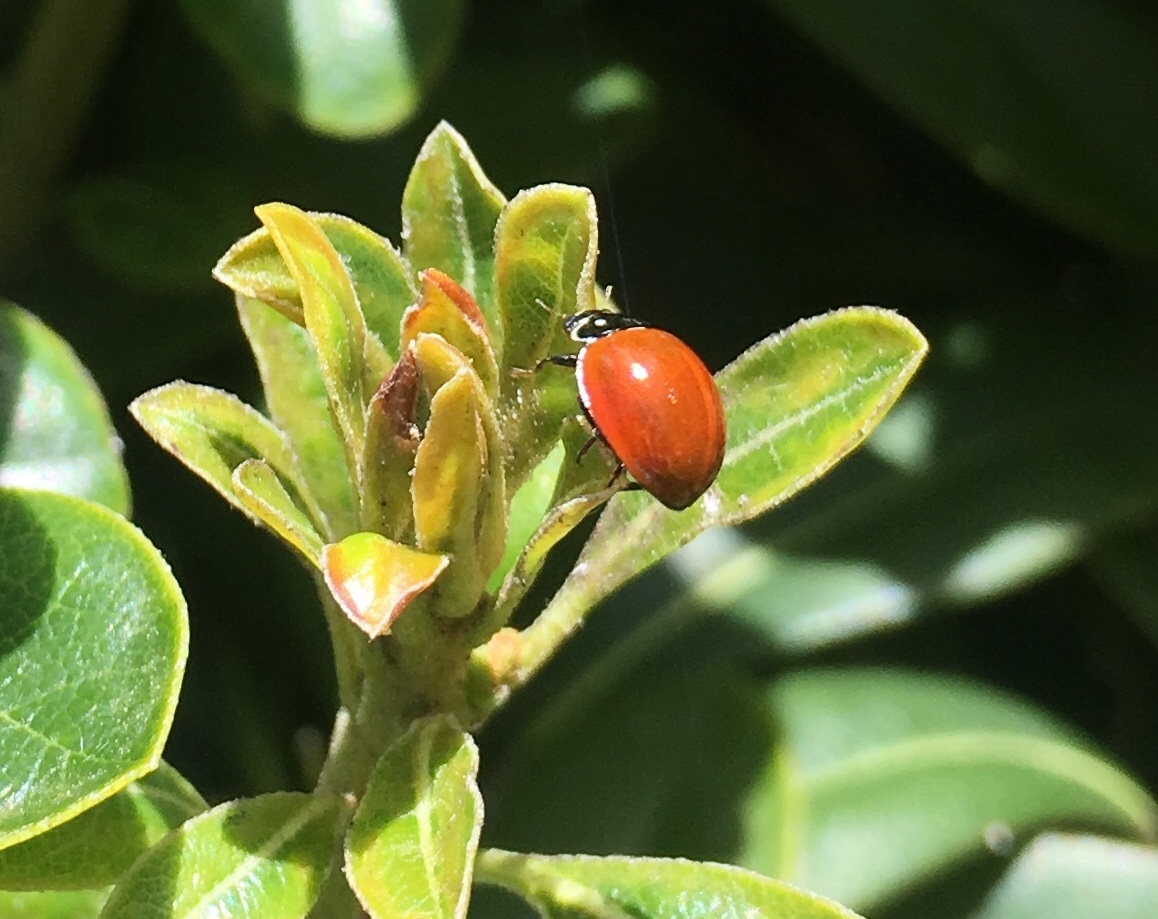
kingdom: Animalia
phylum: Arthropoda
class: Insecta
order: Coleoptera
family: Coccinellidae
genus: Cycloneda
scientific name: Cycloneda sanguinea
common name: Ladybird beetle
